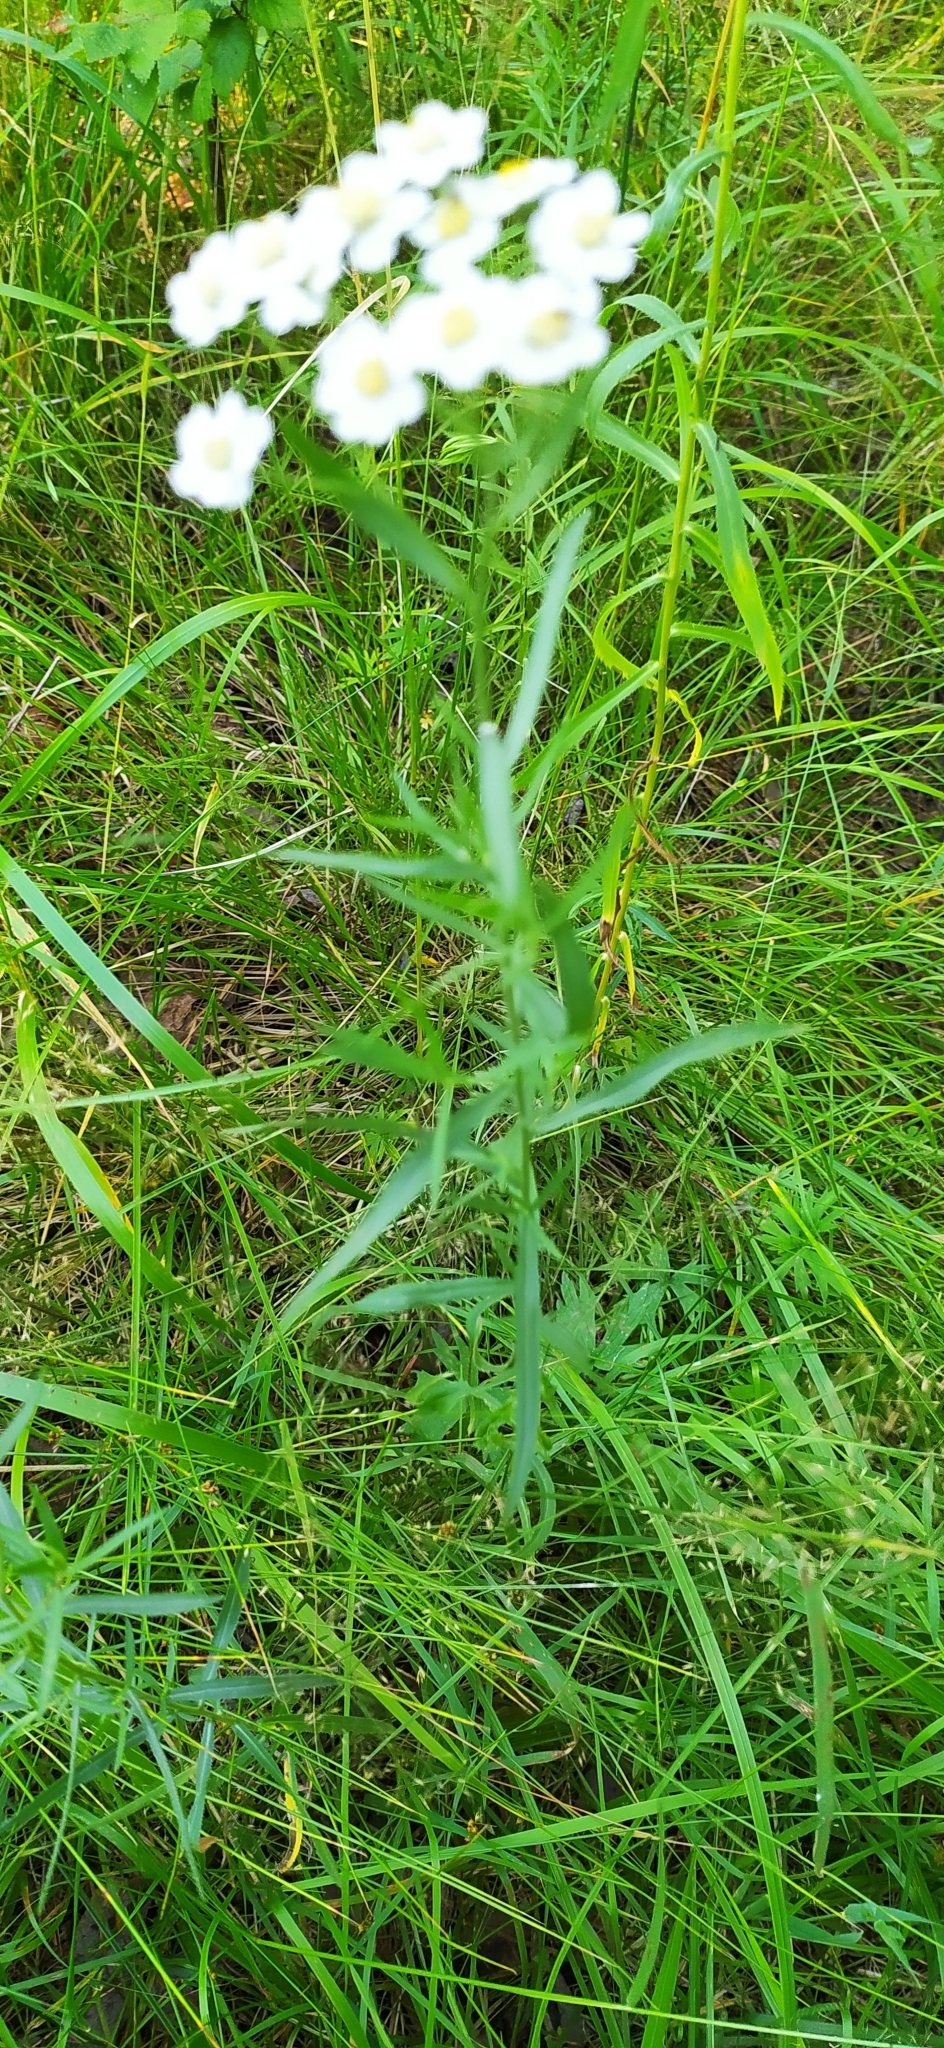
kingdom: Plantae
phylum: Tracheophyta
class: Magnoliopsida
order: Asterales
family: Asteraceae
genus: Achillea
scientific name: Achillea salicifolia
